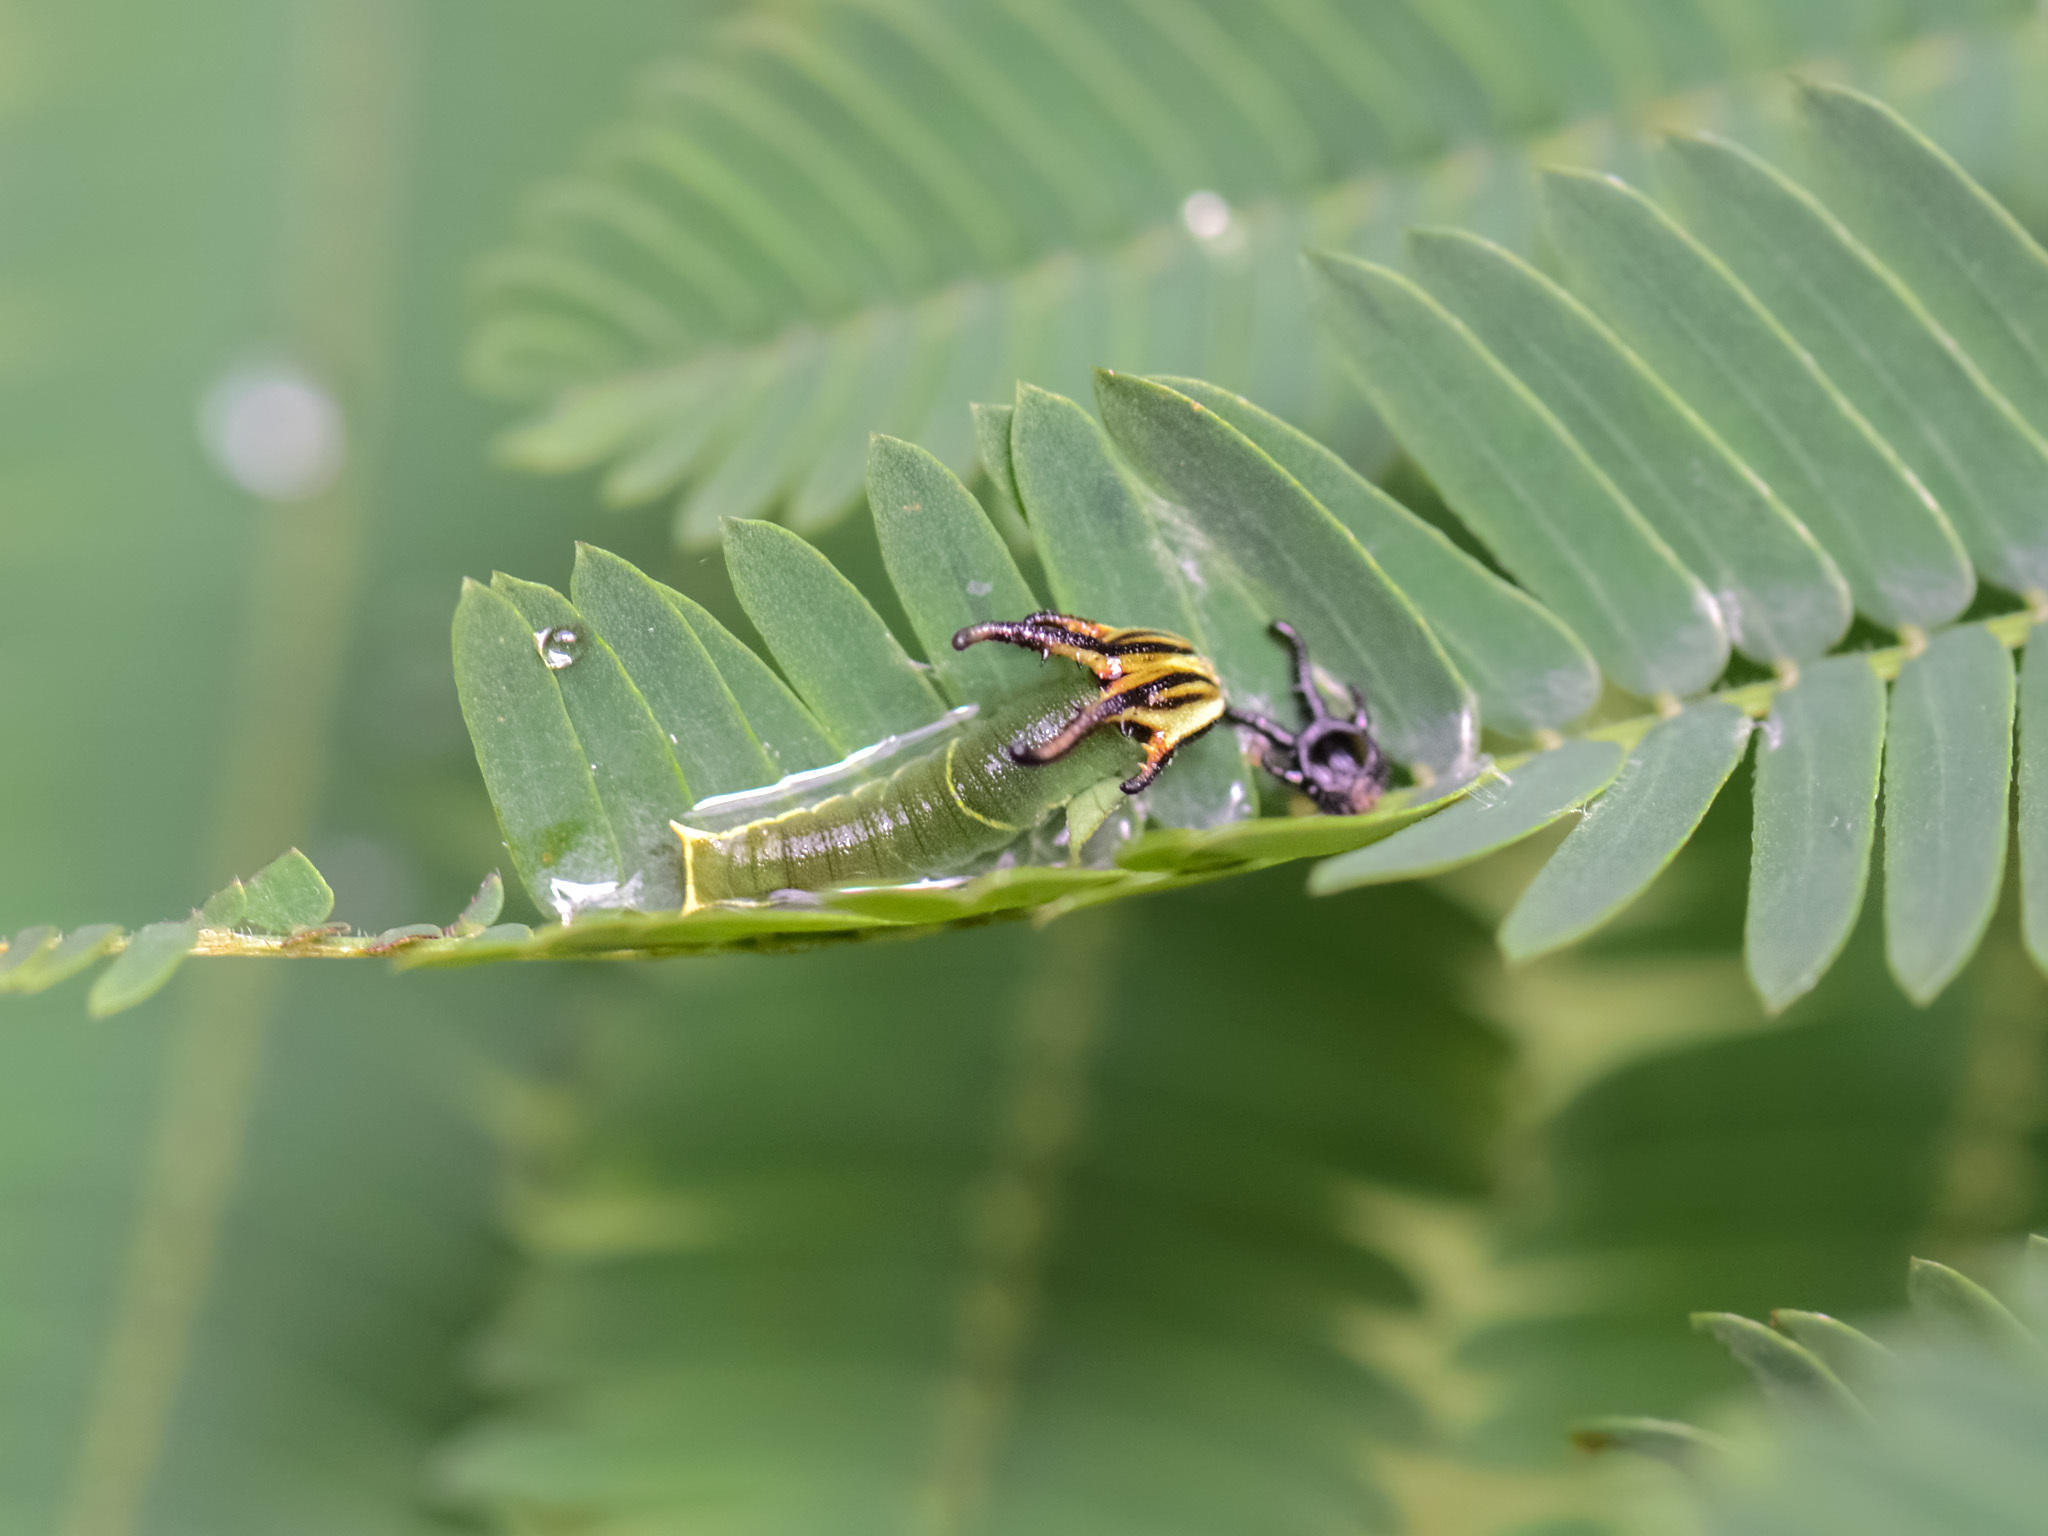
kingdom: Animalia
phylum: Arthropoda
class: Insecta
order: Lepidoptera
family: Nymphalidae
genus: Polyura
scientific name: Polyura athamas
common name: Common nawab
